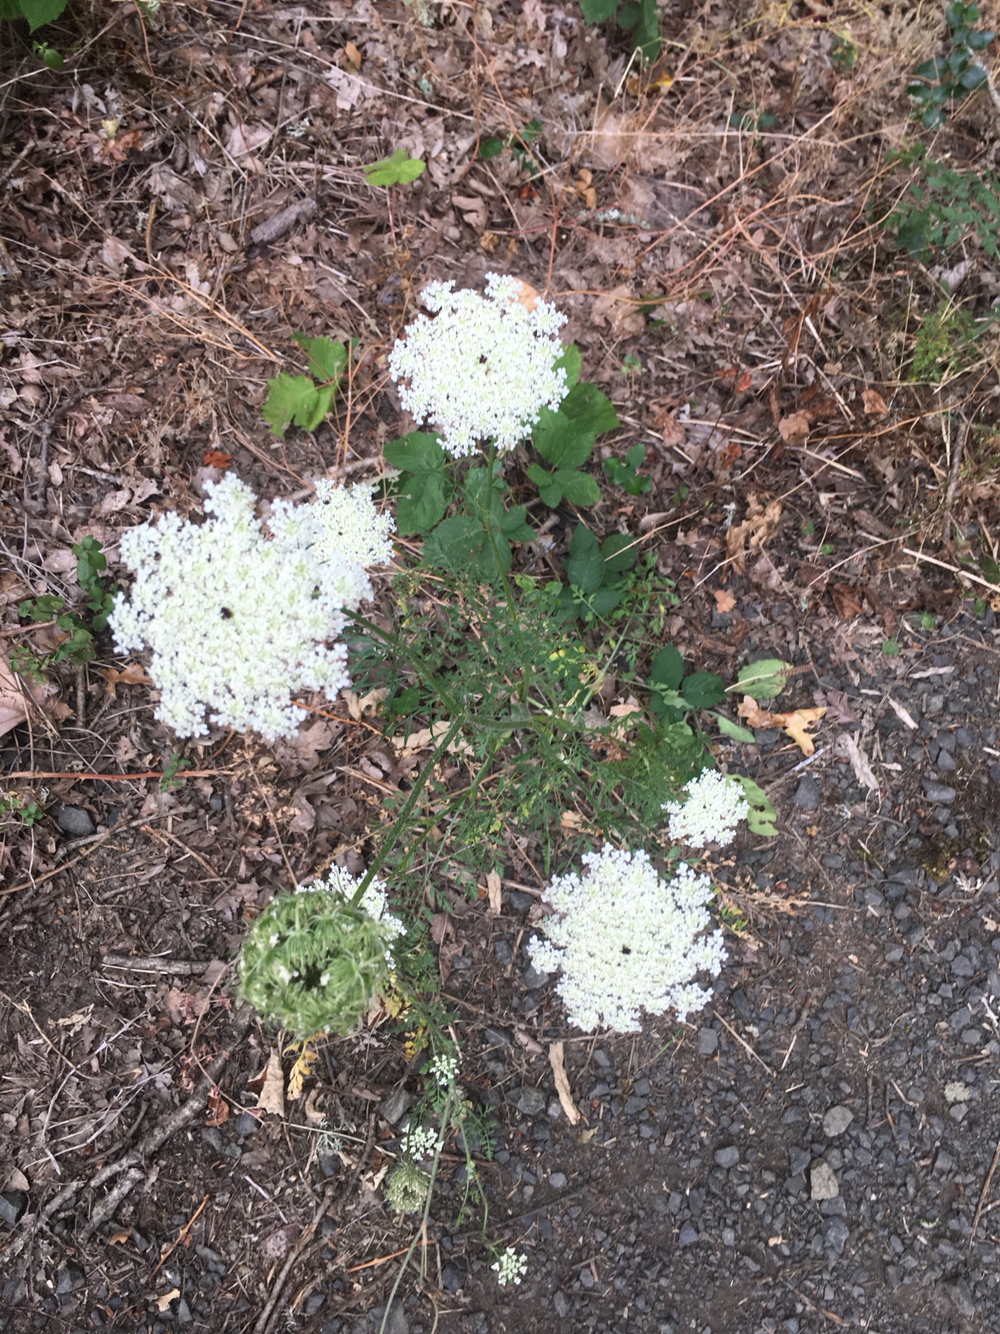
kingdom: Plantae
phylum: Tracheophyta
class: Magnoliopsida
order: Apiales
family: Apiaceae
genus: Daucus
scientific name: Daucus carota
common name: Wild carrot
